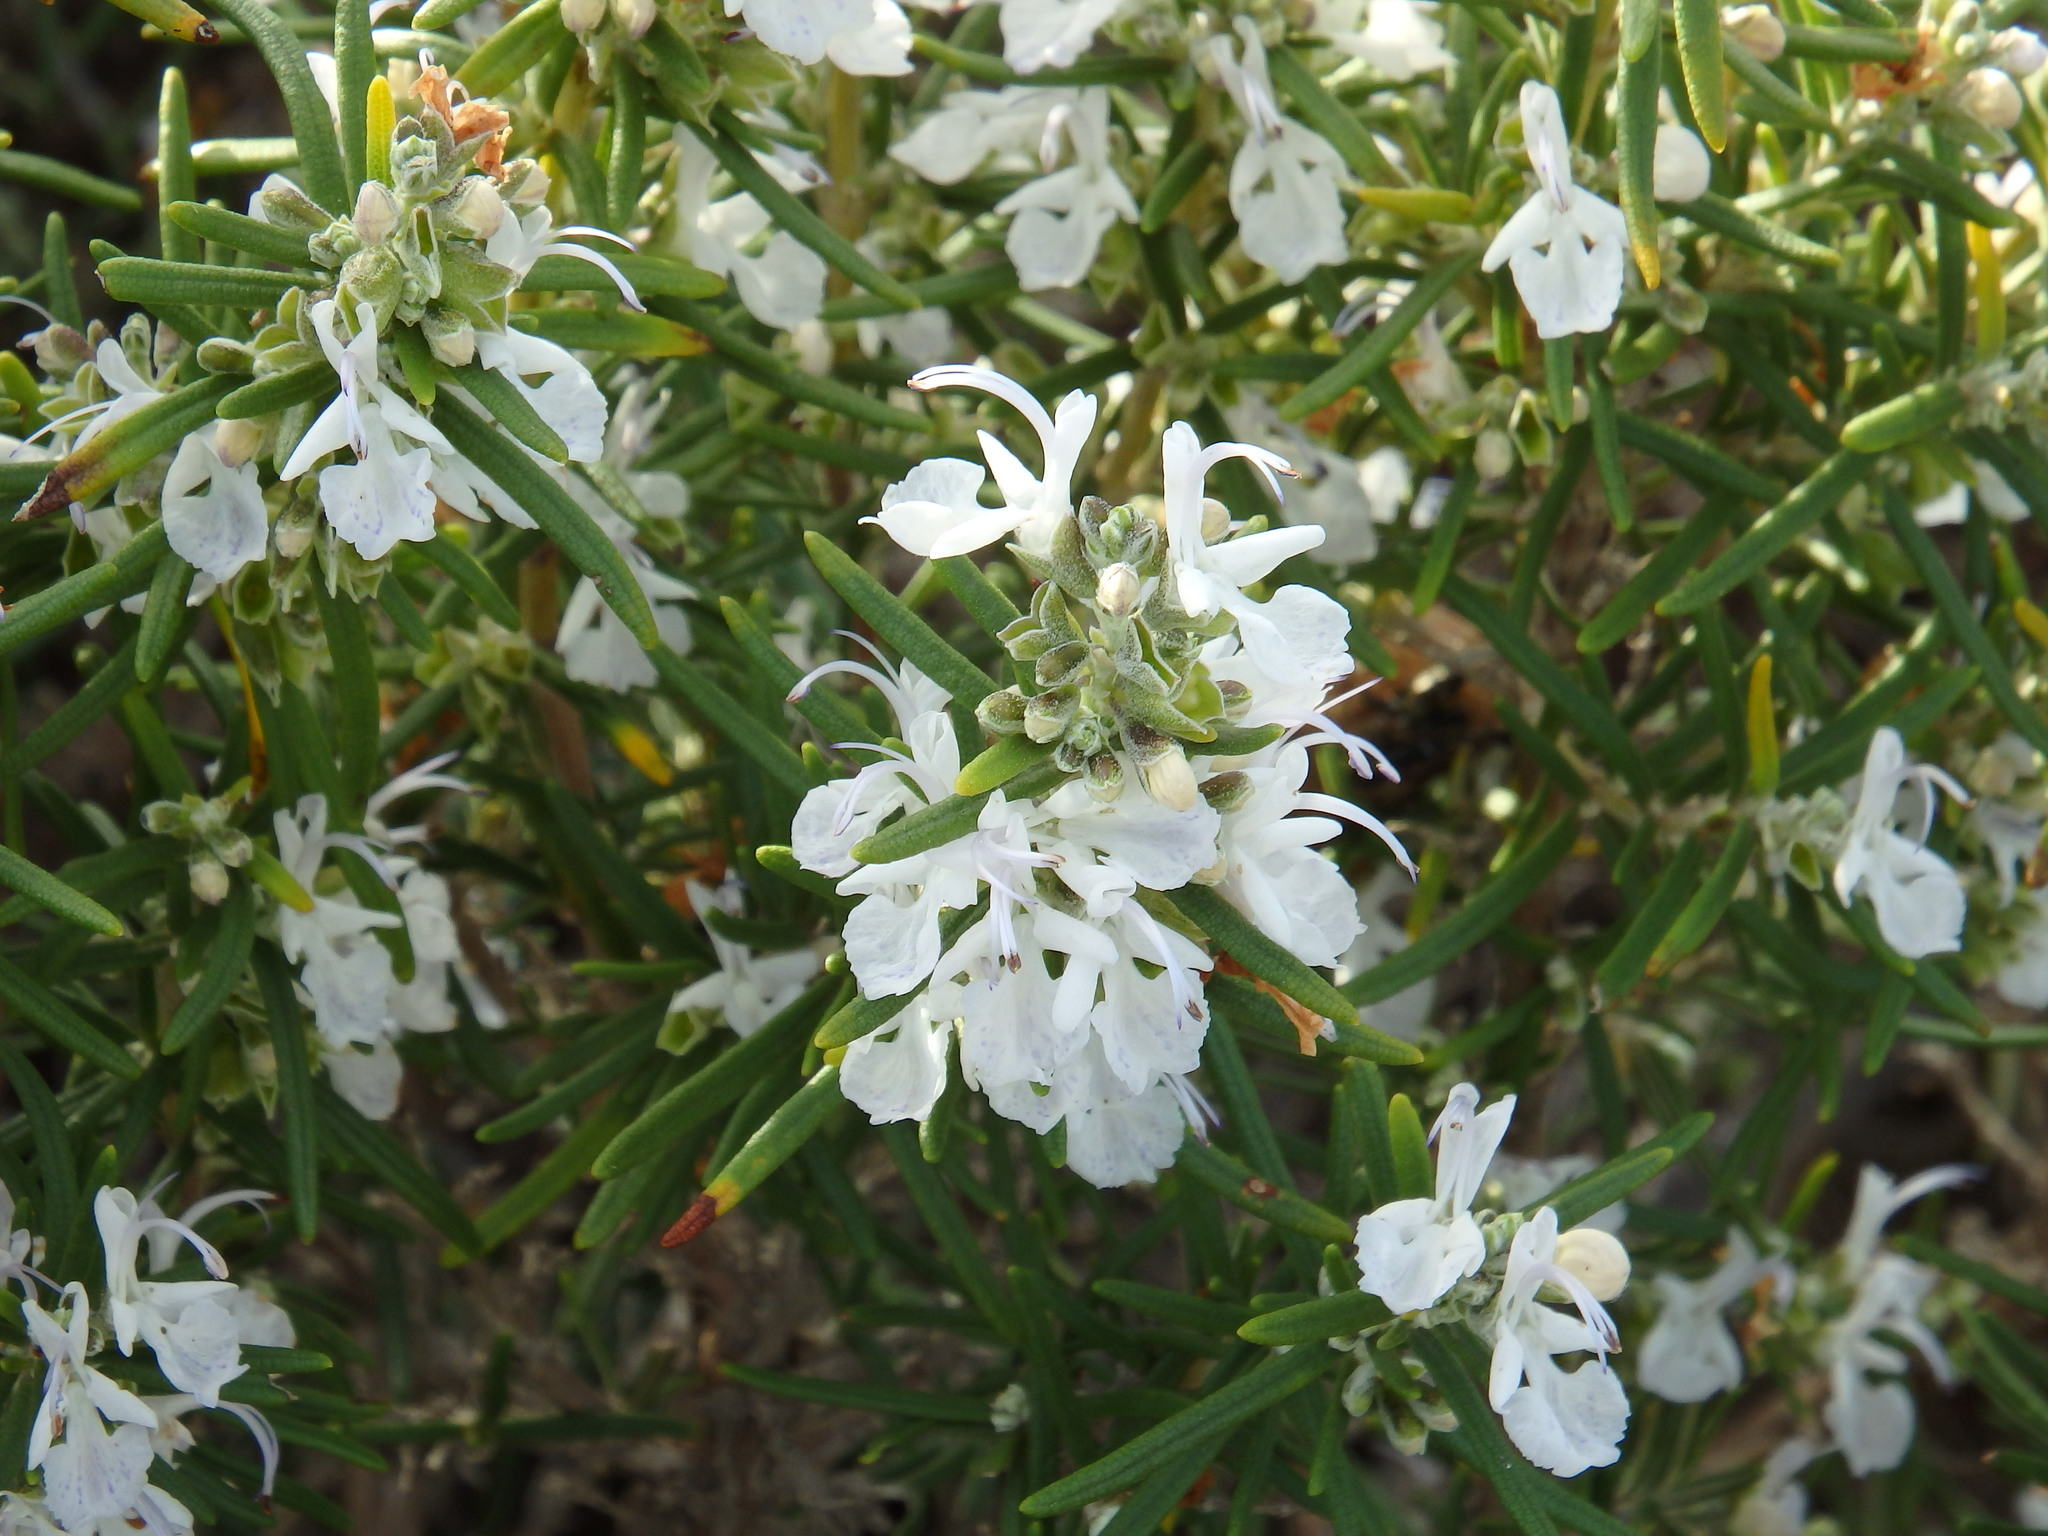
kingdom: Plantae
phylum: Tracheophyta
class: Magnoliopsida
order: Lamiales
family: Lamiaceae
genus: Salvia
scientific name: Salvia rosmarinus
